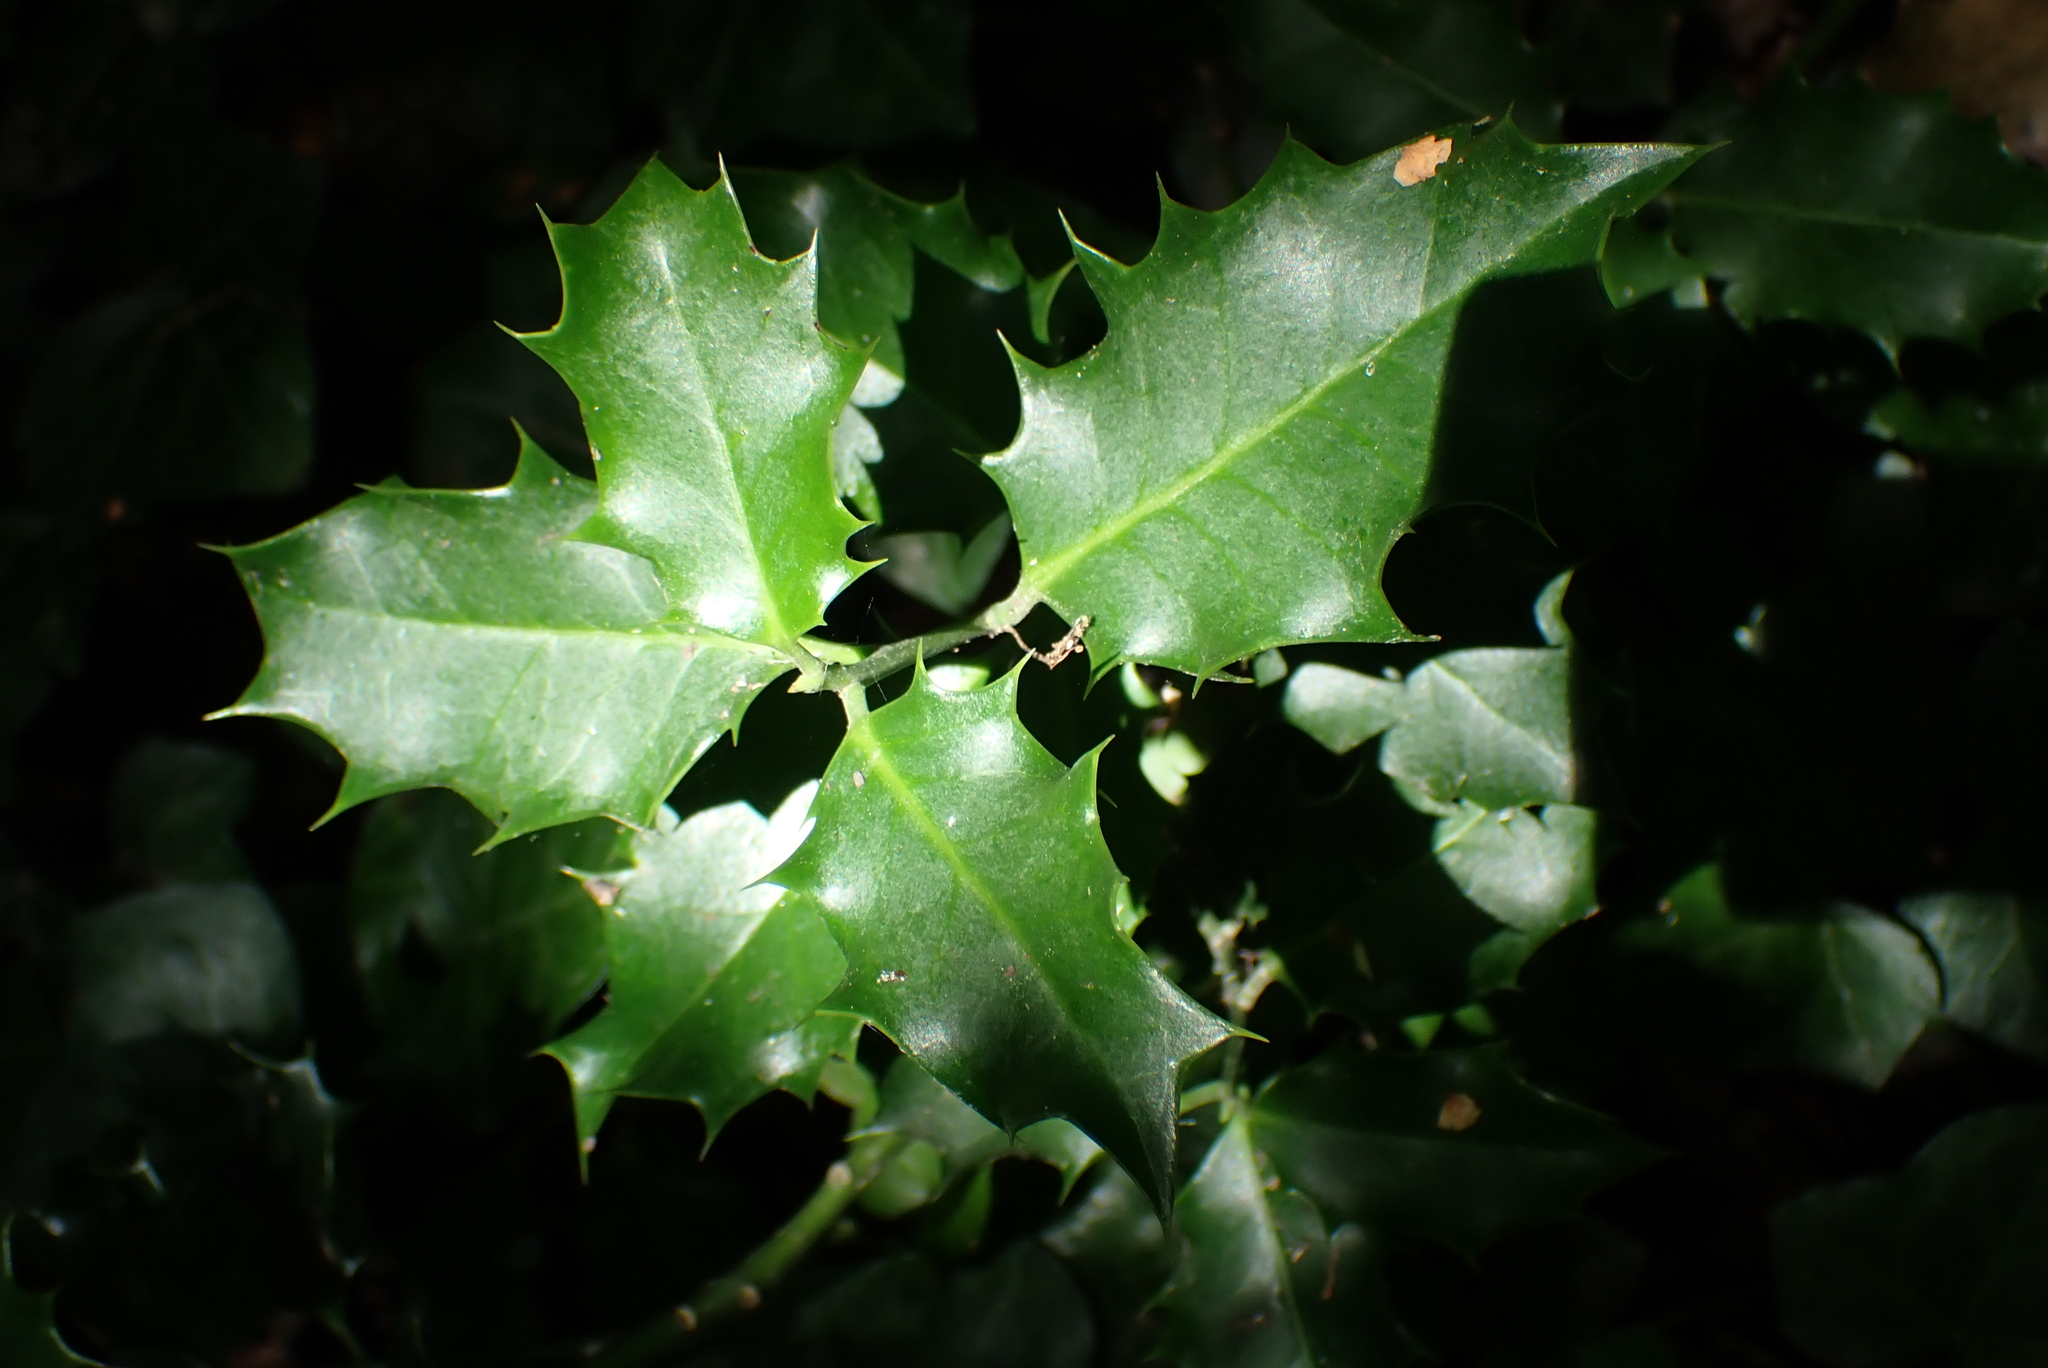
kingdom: Plantae
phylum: Tracheophyta
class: Magnoliopsida
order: Aquifoliales
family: Aquifoliaceae
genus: Ilex
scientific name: Ilex aquifolium
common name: English holly
